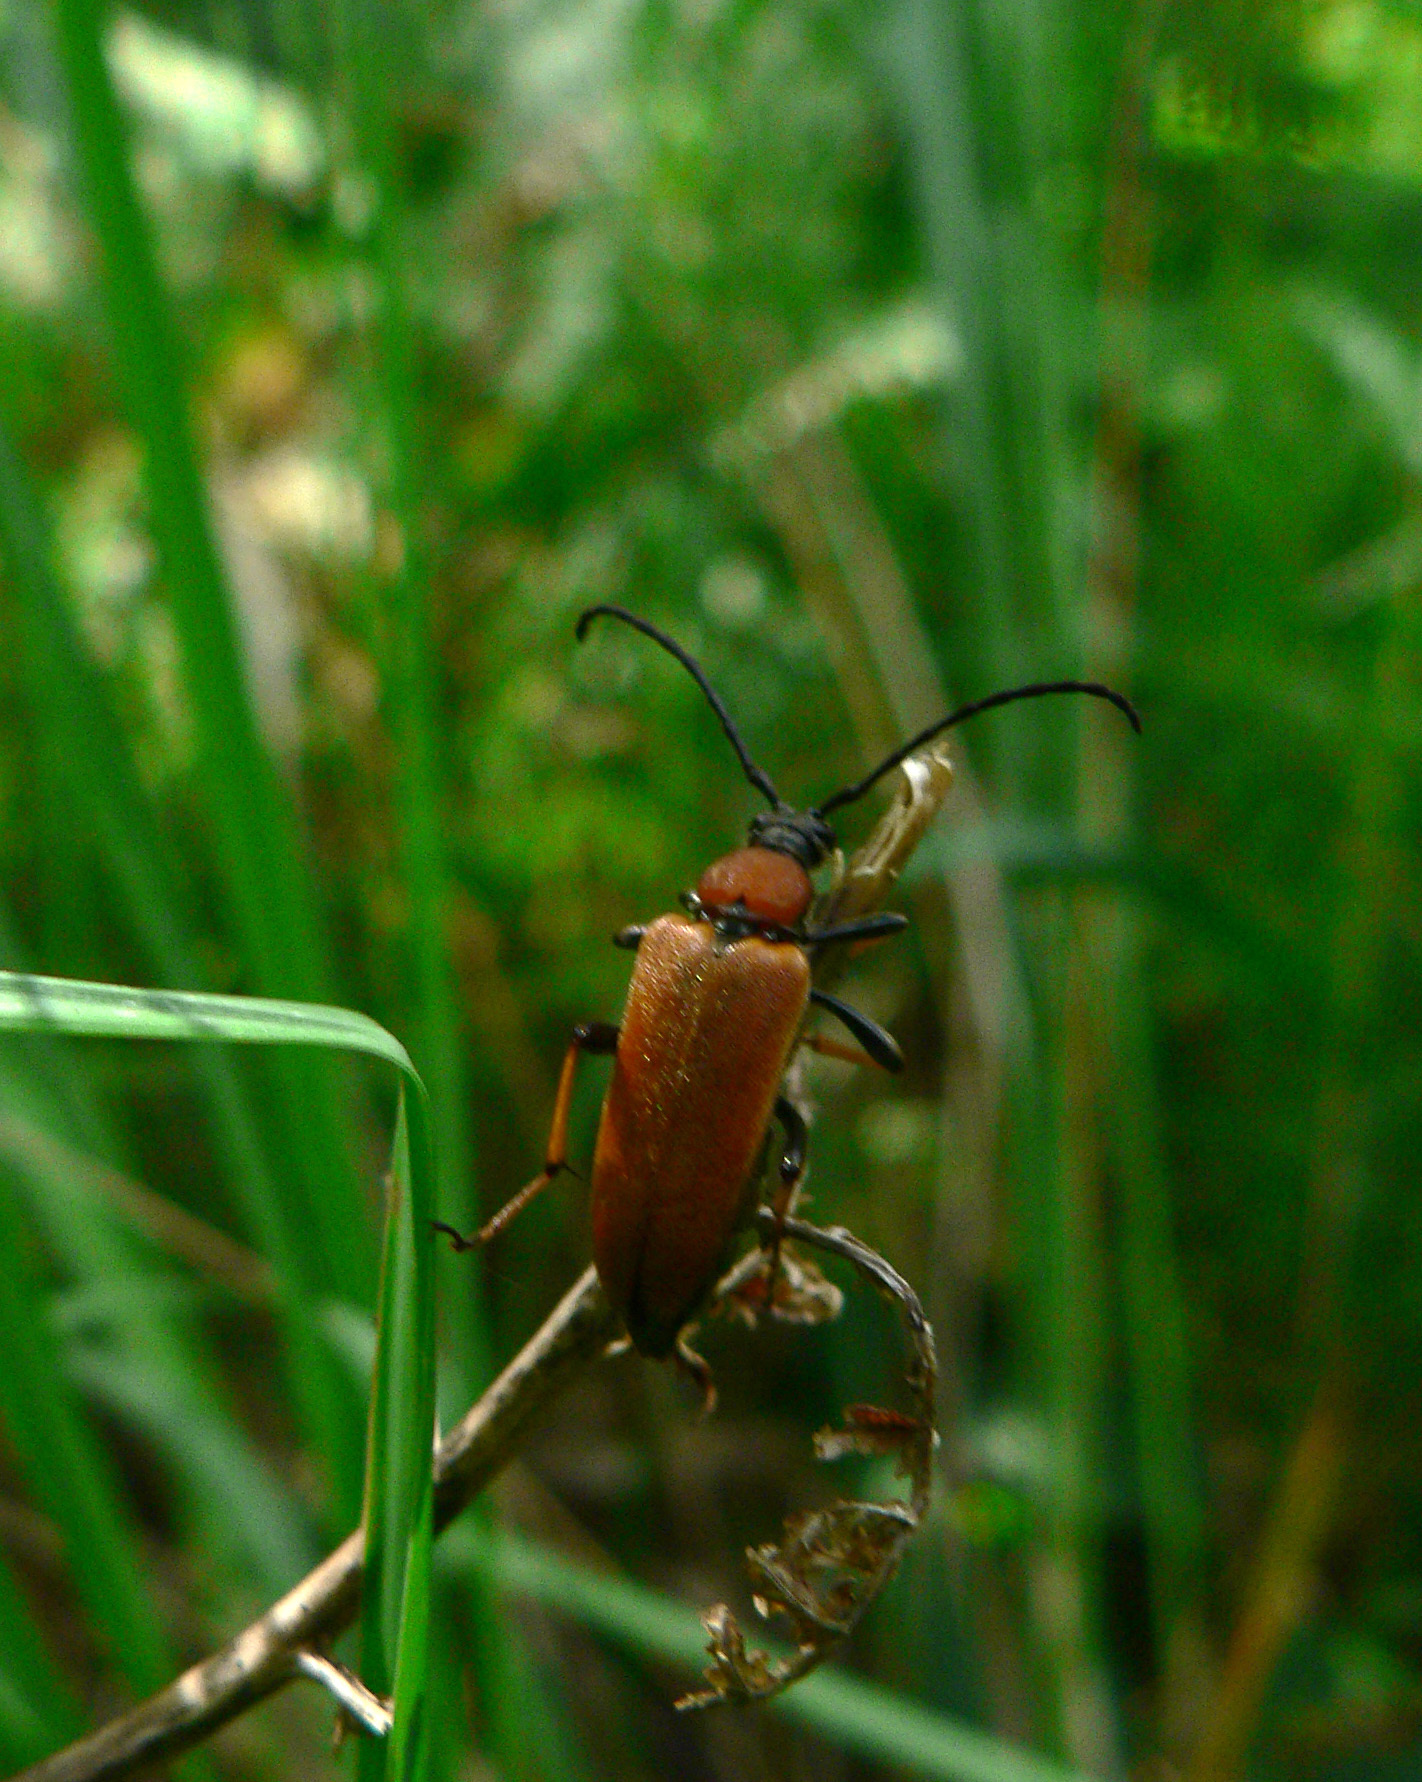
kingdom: Animalia
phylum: Arthropoda
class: Insecta
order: Coleoptera
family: Cerambycidae
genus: Stictoleptura
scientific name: Stictoleptura rubra
